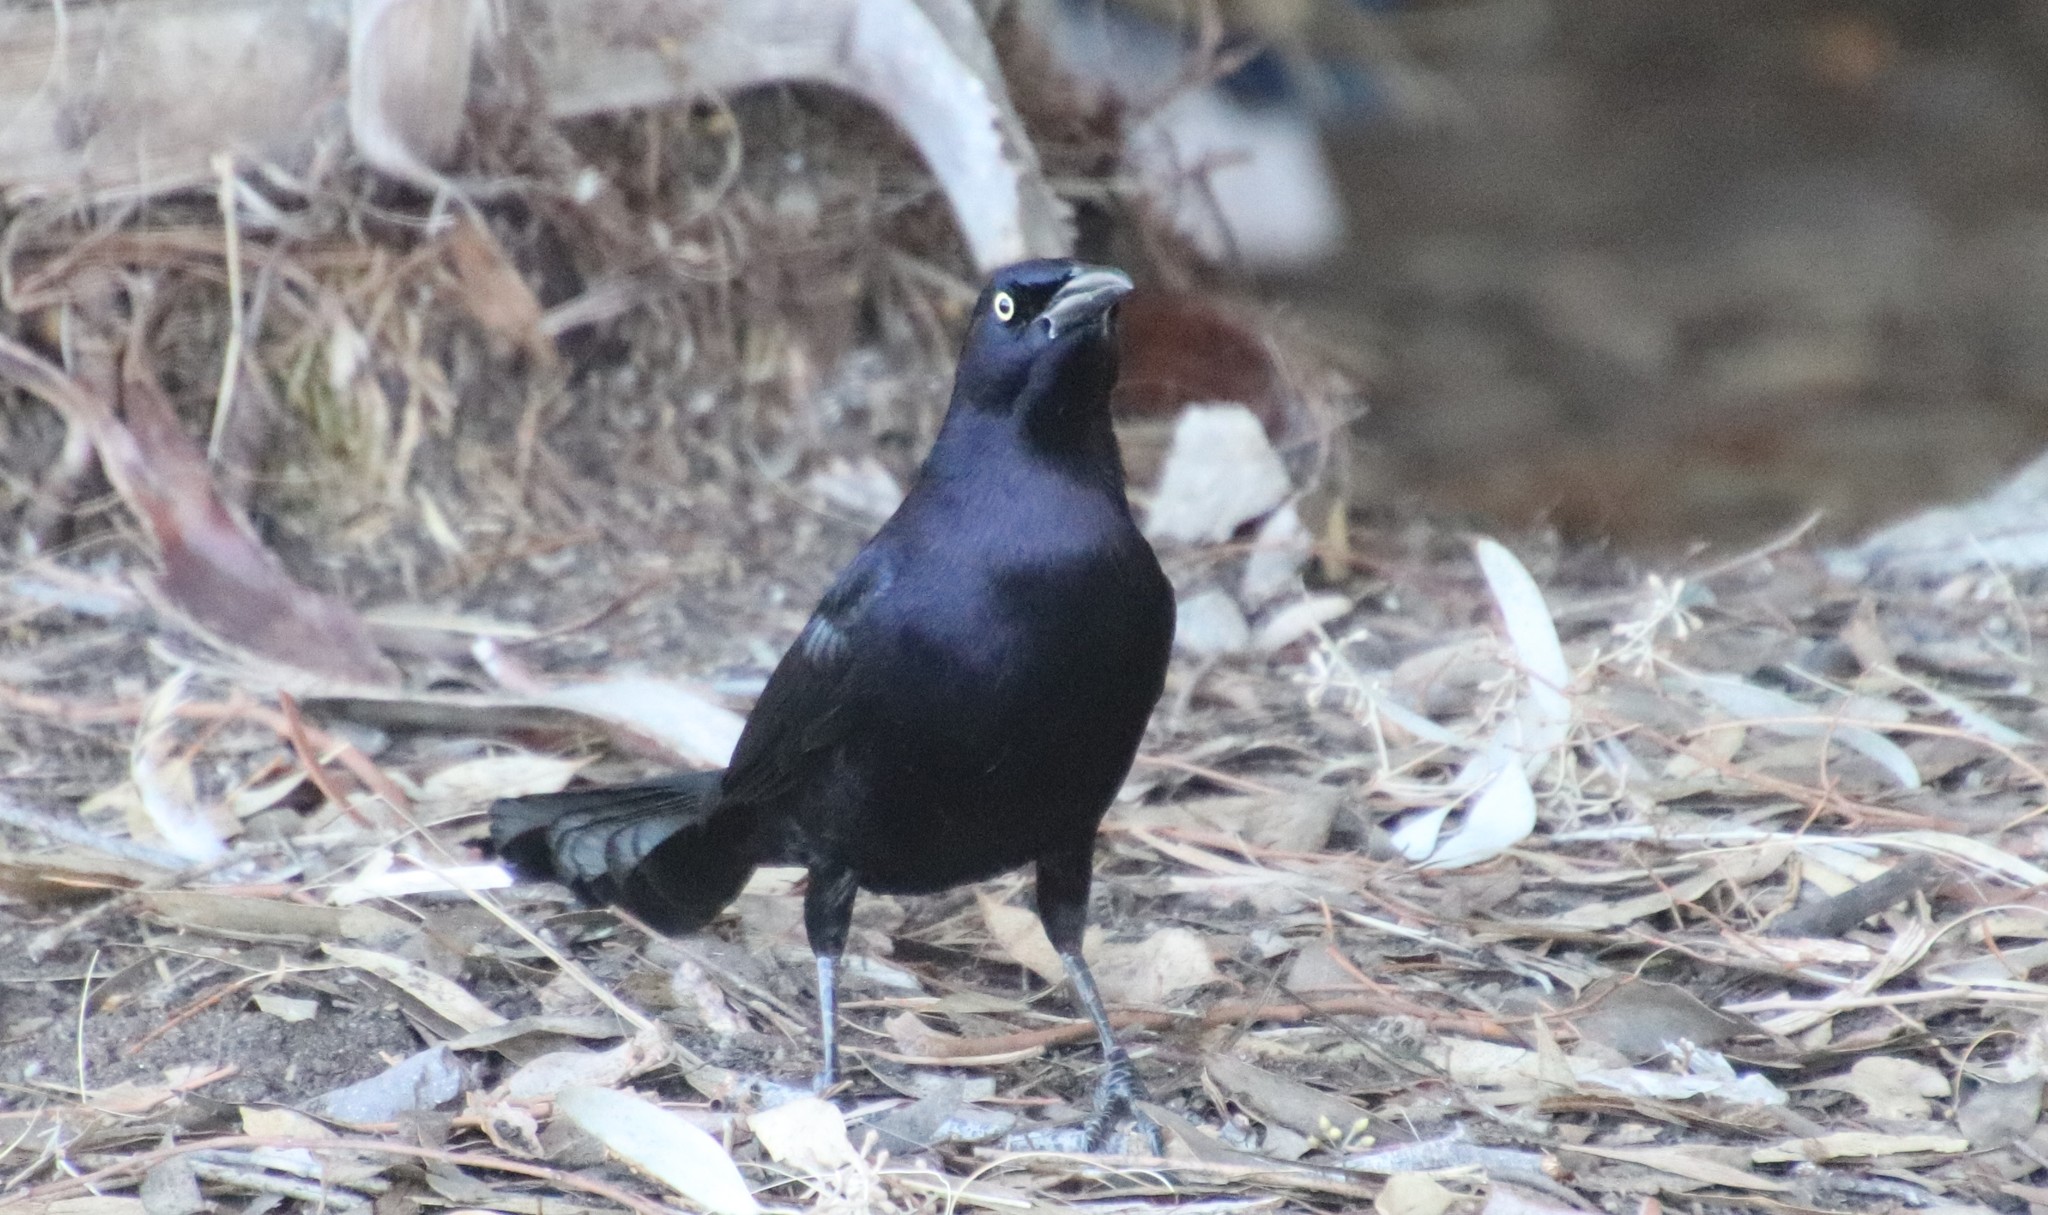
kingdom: Animalia
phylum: Chordata
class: Aves
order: Passeriformes
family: Icteridae
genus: Quiscalus
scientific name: Quiscalus mexicanus
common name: Great-tailed grackle
